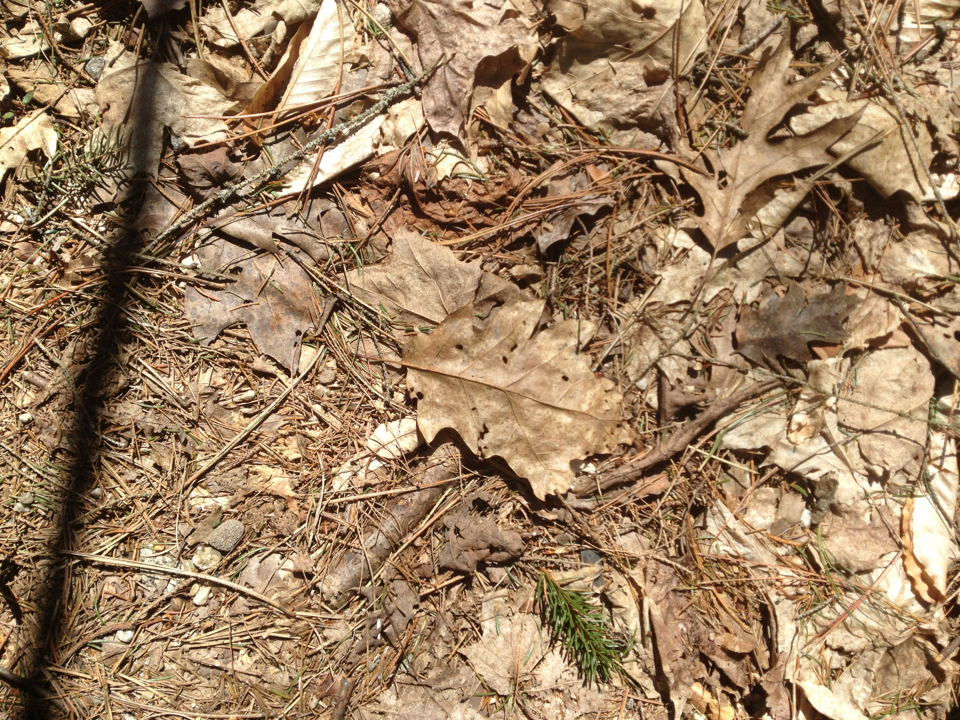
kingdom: Plantae
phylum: Tracheophyta
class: Magnoliopsida
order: Fagales
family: Fagaceae
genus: Quercus
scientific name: Quercus rubra
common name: Red oak
